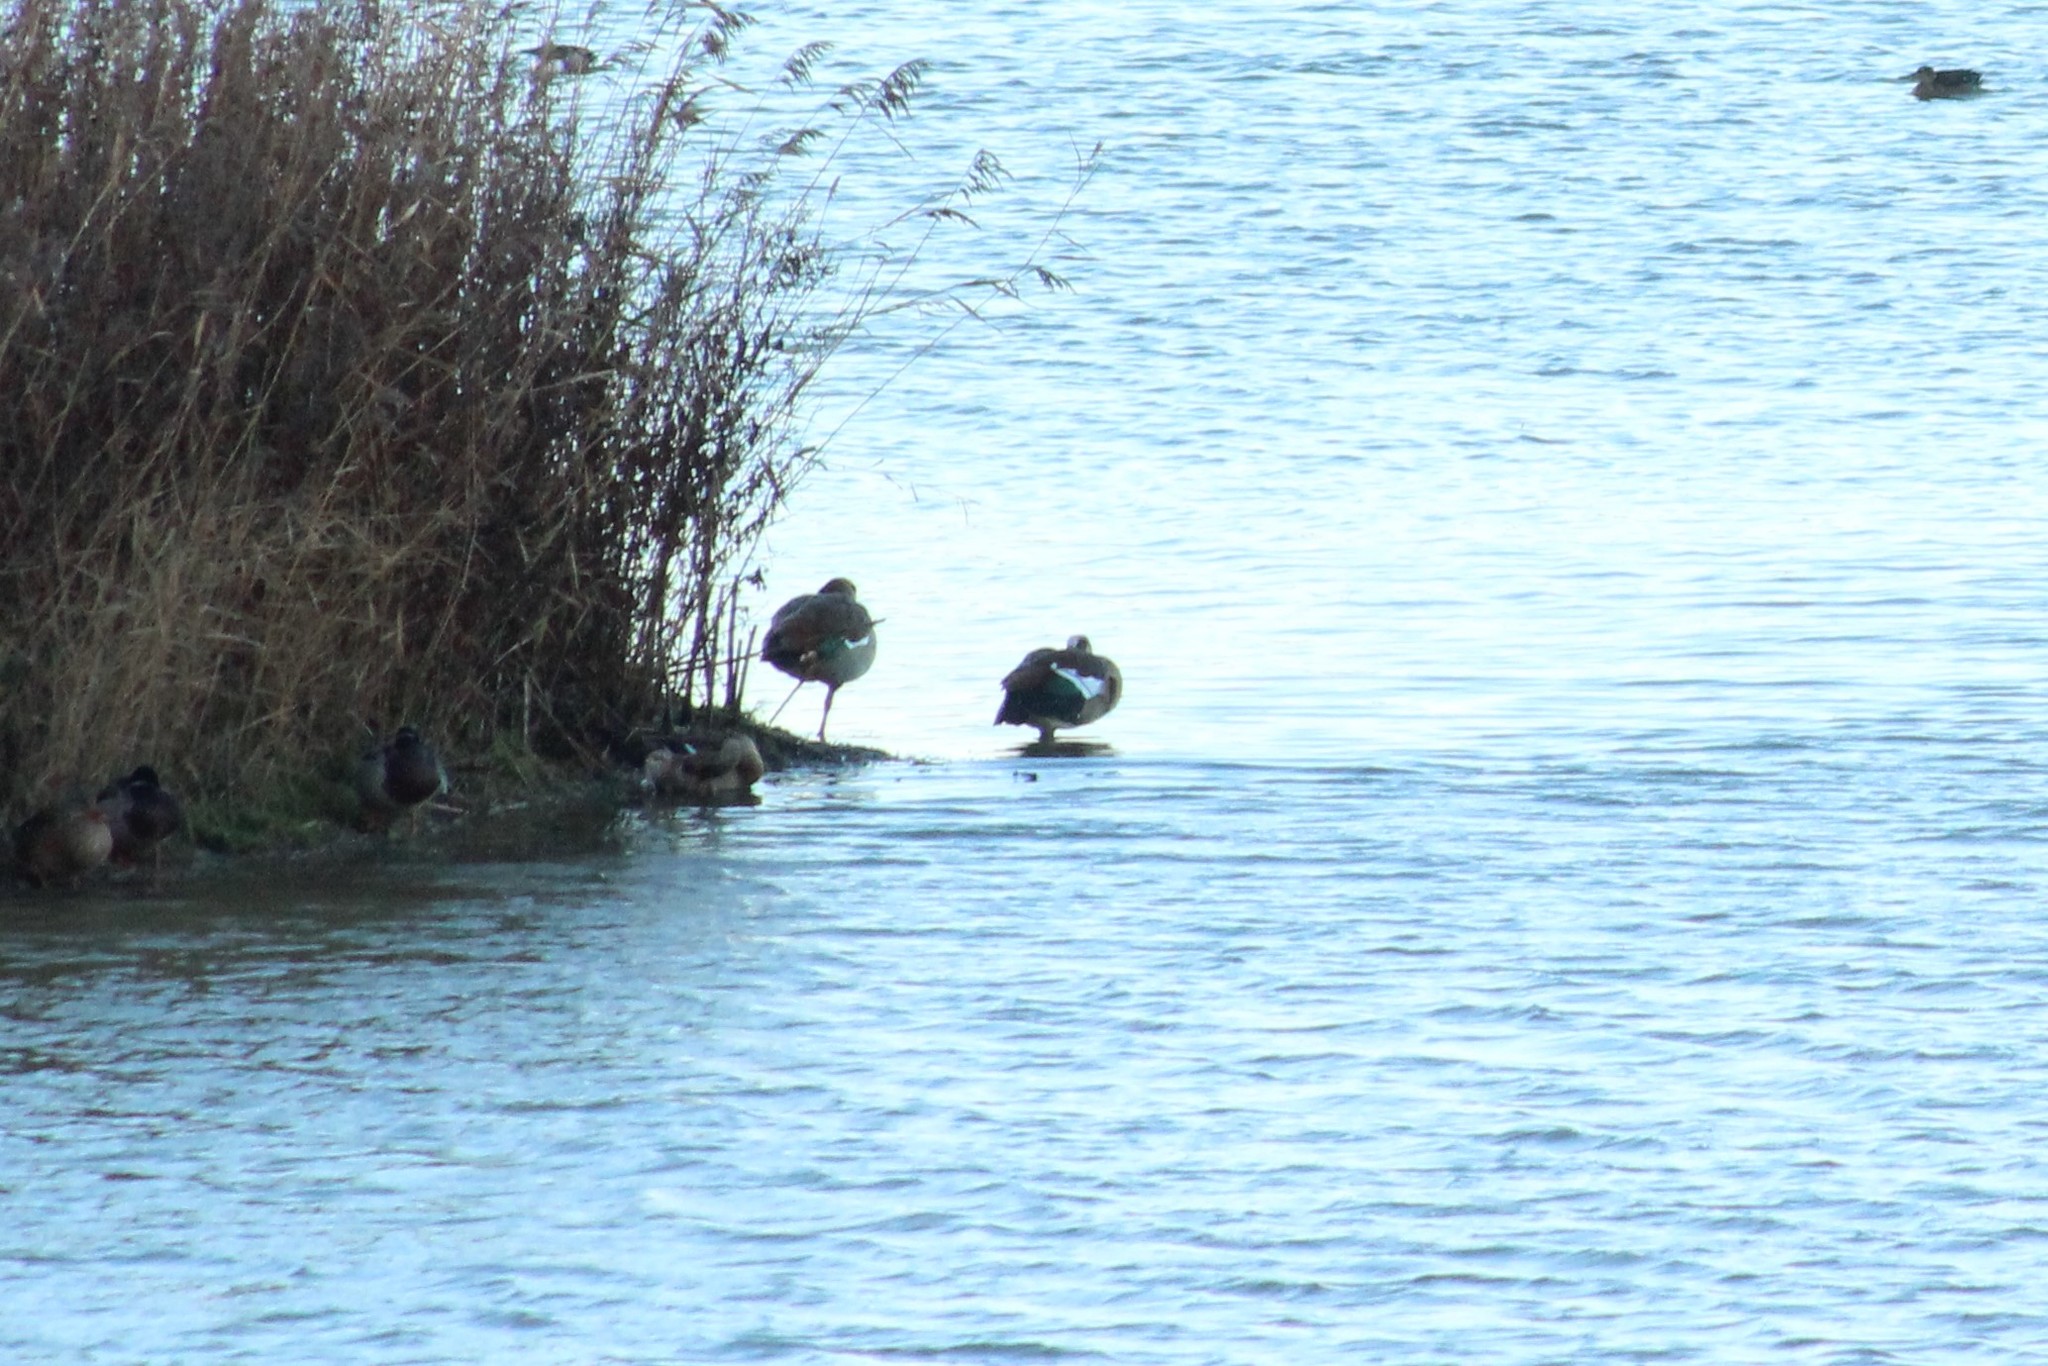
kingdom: Animalia
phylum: Chordata
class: Aves
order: Anseriformes
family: Anatidae
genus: Alopochen
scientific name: Alopochen aegyptiaca
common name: Egyptian goose
